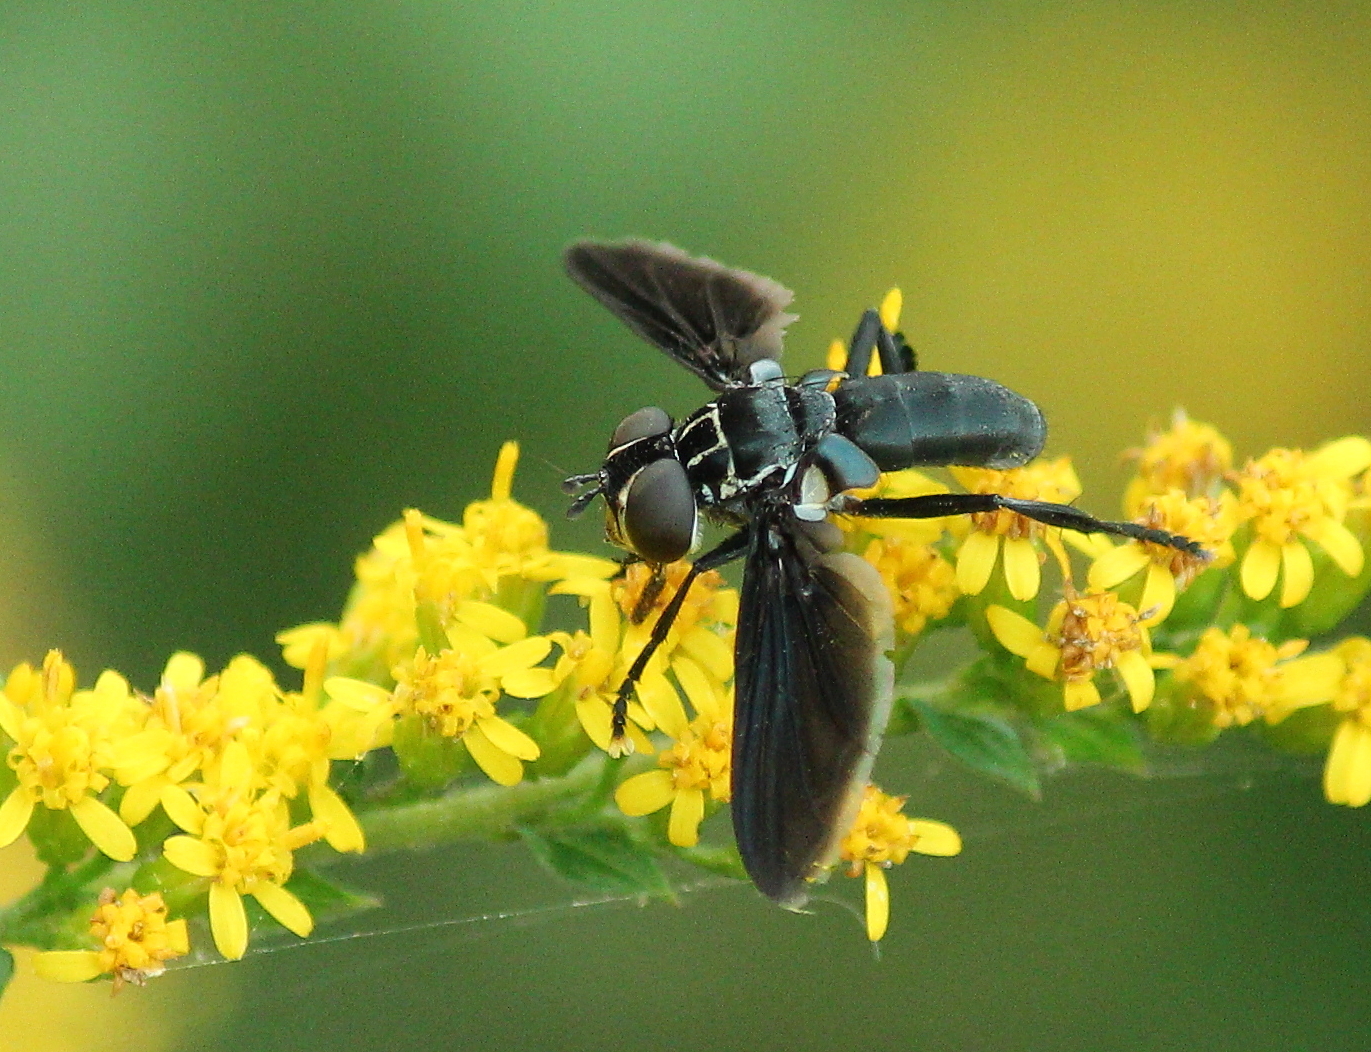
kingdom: Animalia
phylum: Arthropoda
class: Insecta
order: Diptera
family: Tachinidae
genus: Trichopoda
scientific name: Trichopoda lanipes
